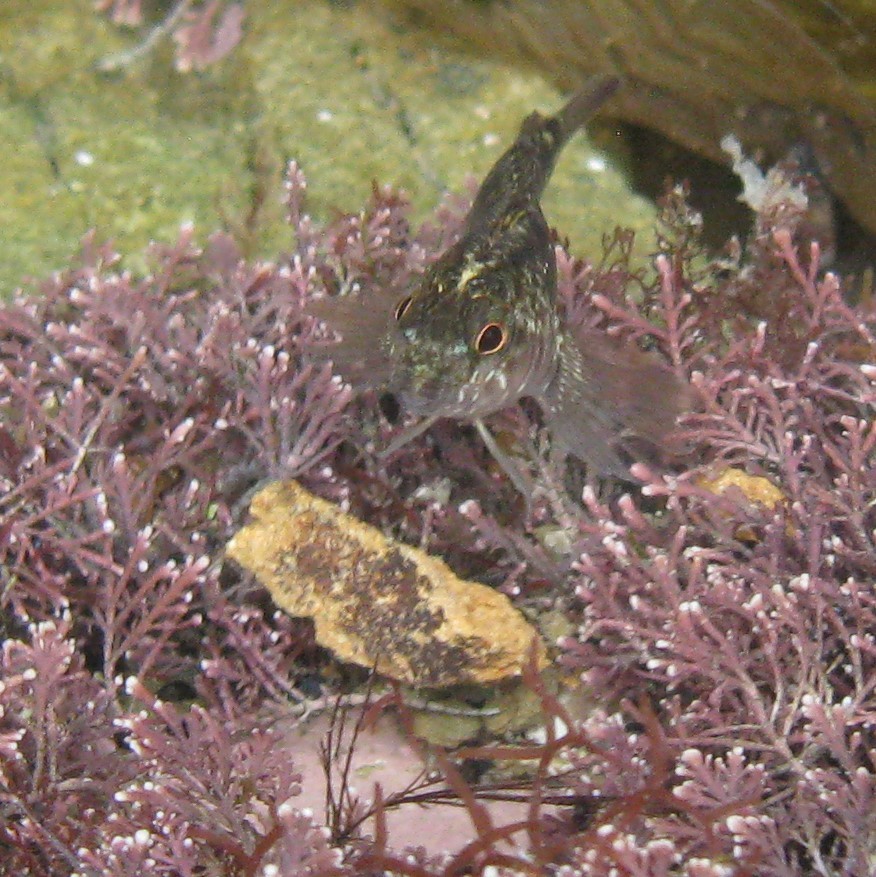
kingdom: Animalia
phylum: Chordata
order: Perciformes
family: Tripterygiidae
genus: Forsterygion
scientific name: Forsterygion lapillum
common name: Common triplefin
